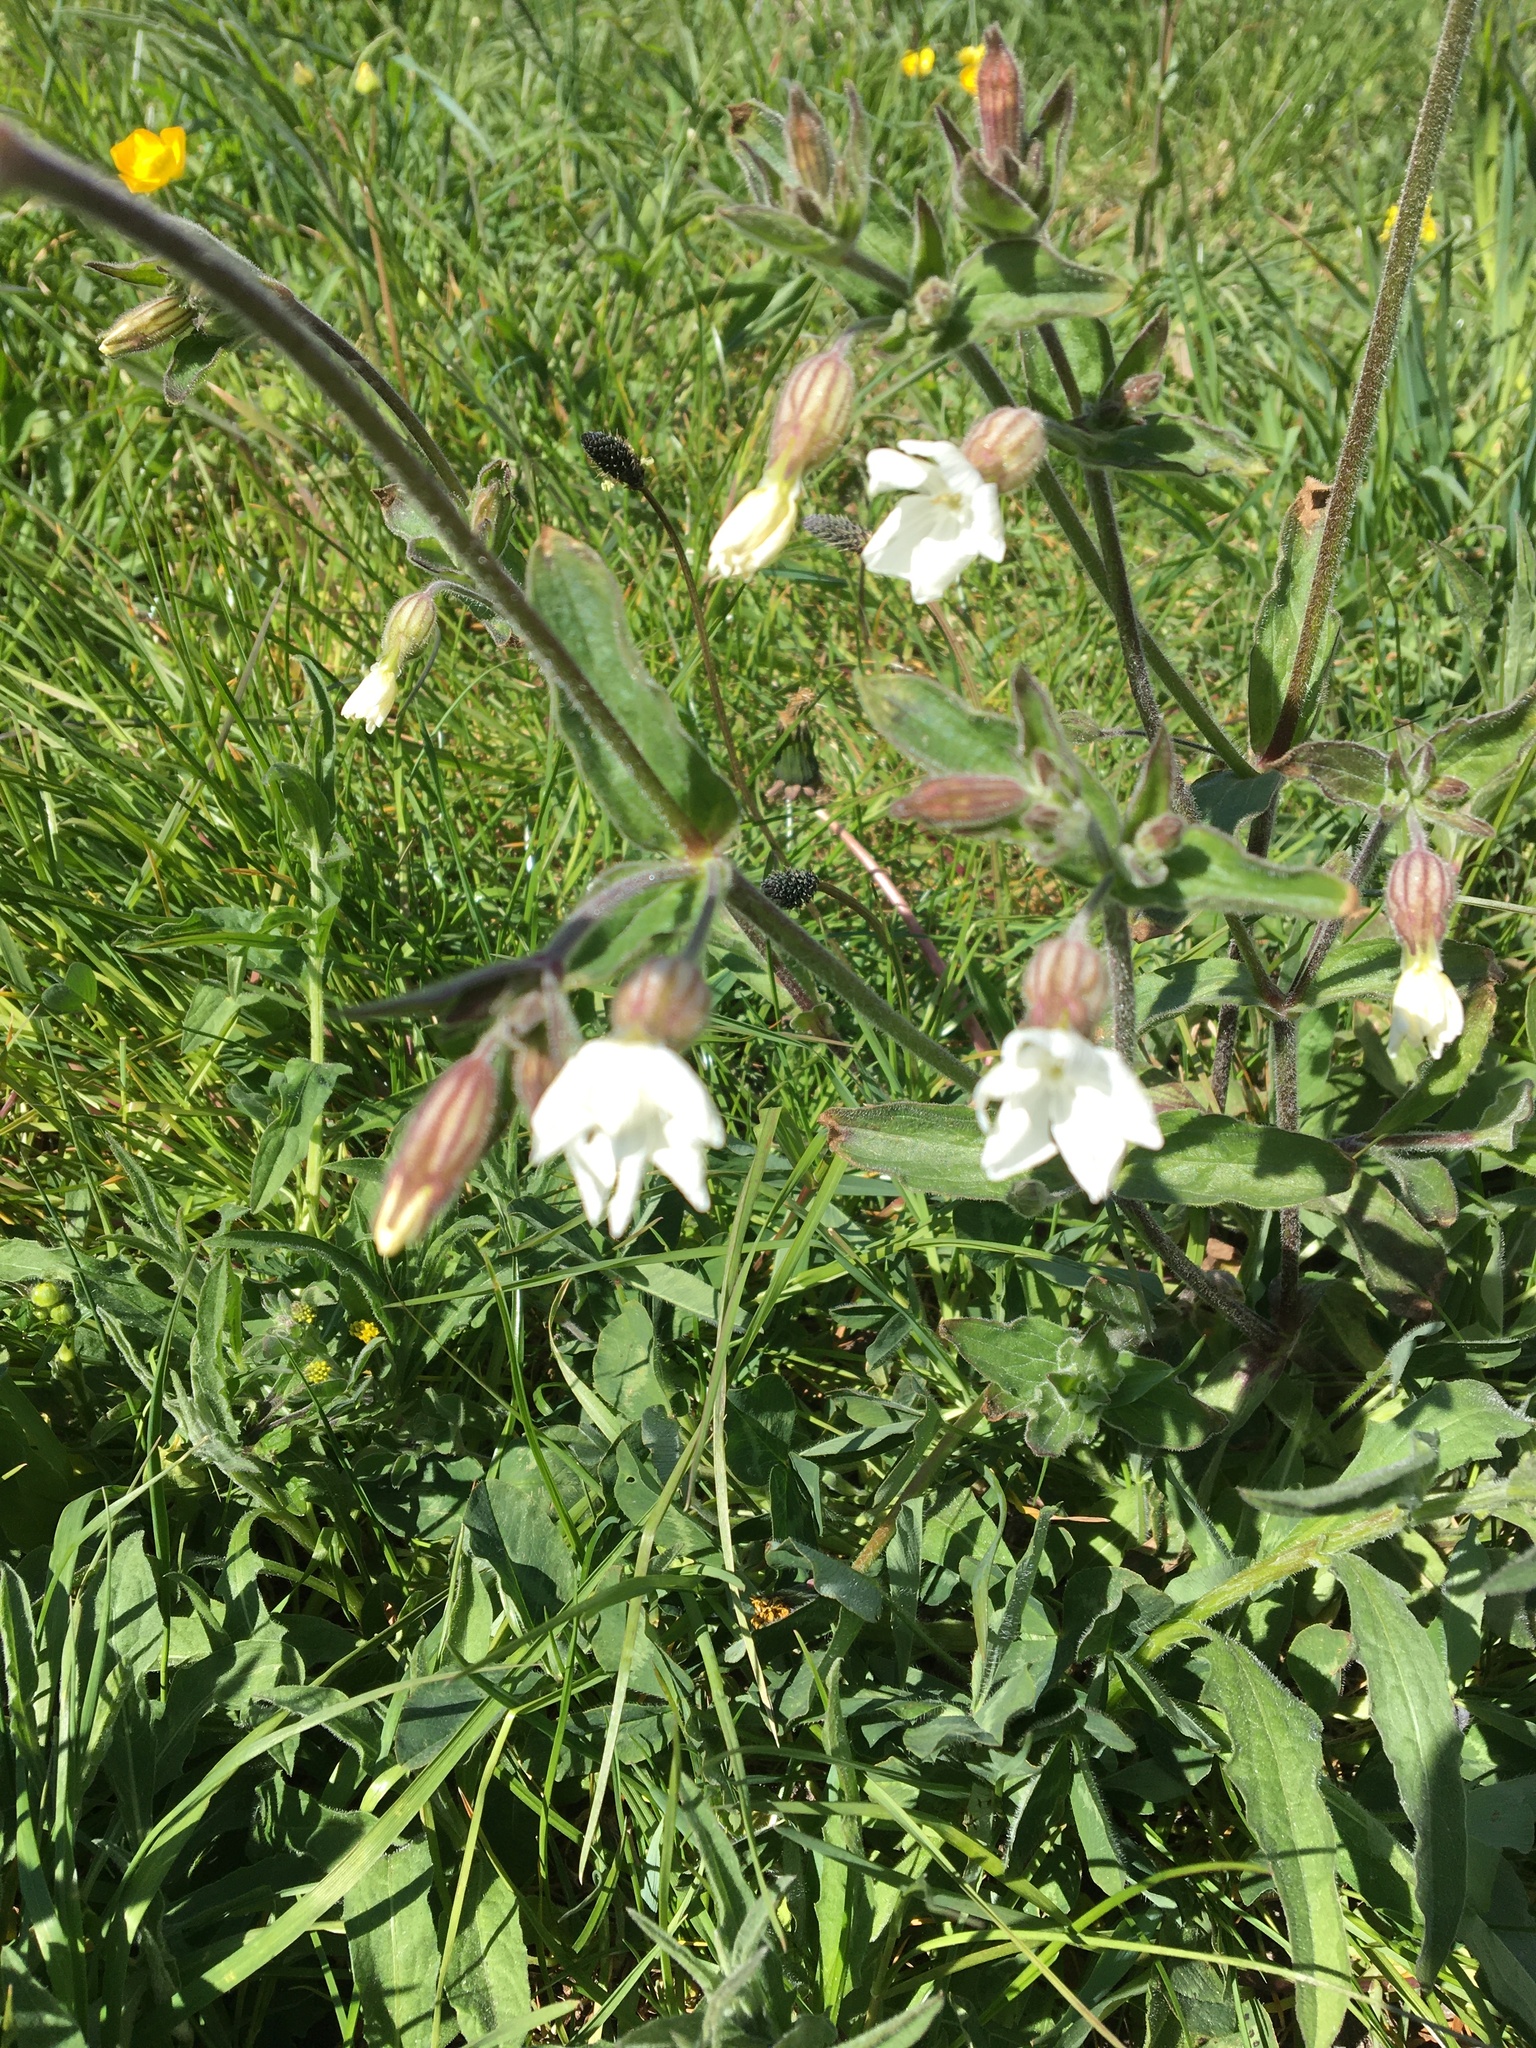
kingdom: Plantae
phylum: Tracheophyta
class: Magnoliopsida
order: Caryophyllales
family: Caryophyllaceae
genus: Silene
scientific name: Silene latifolia
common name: White campion
